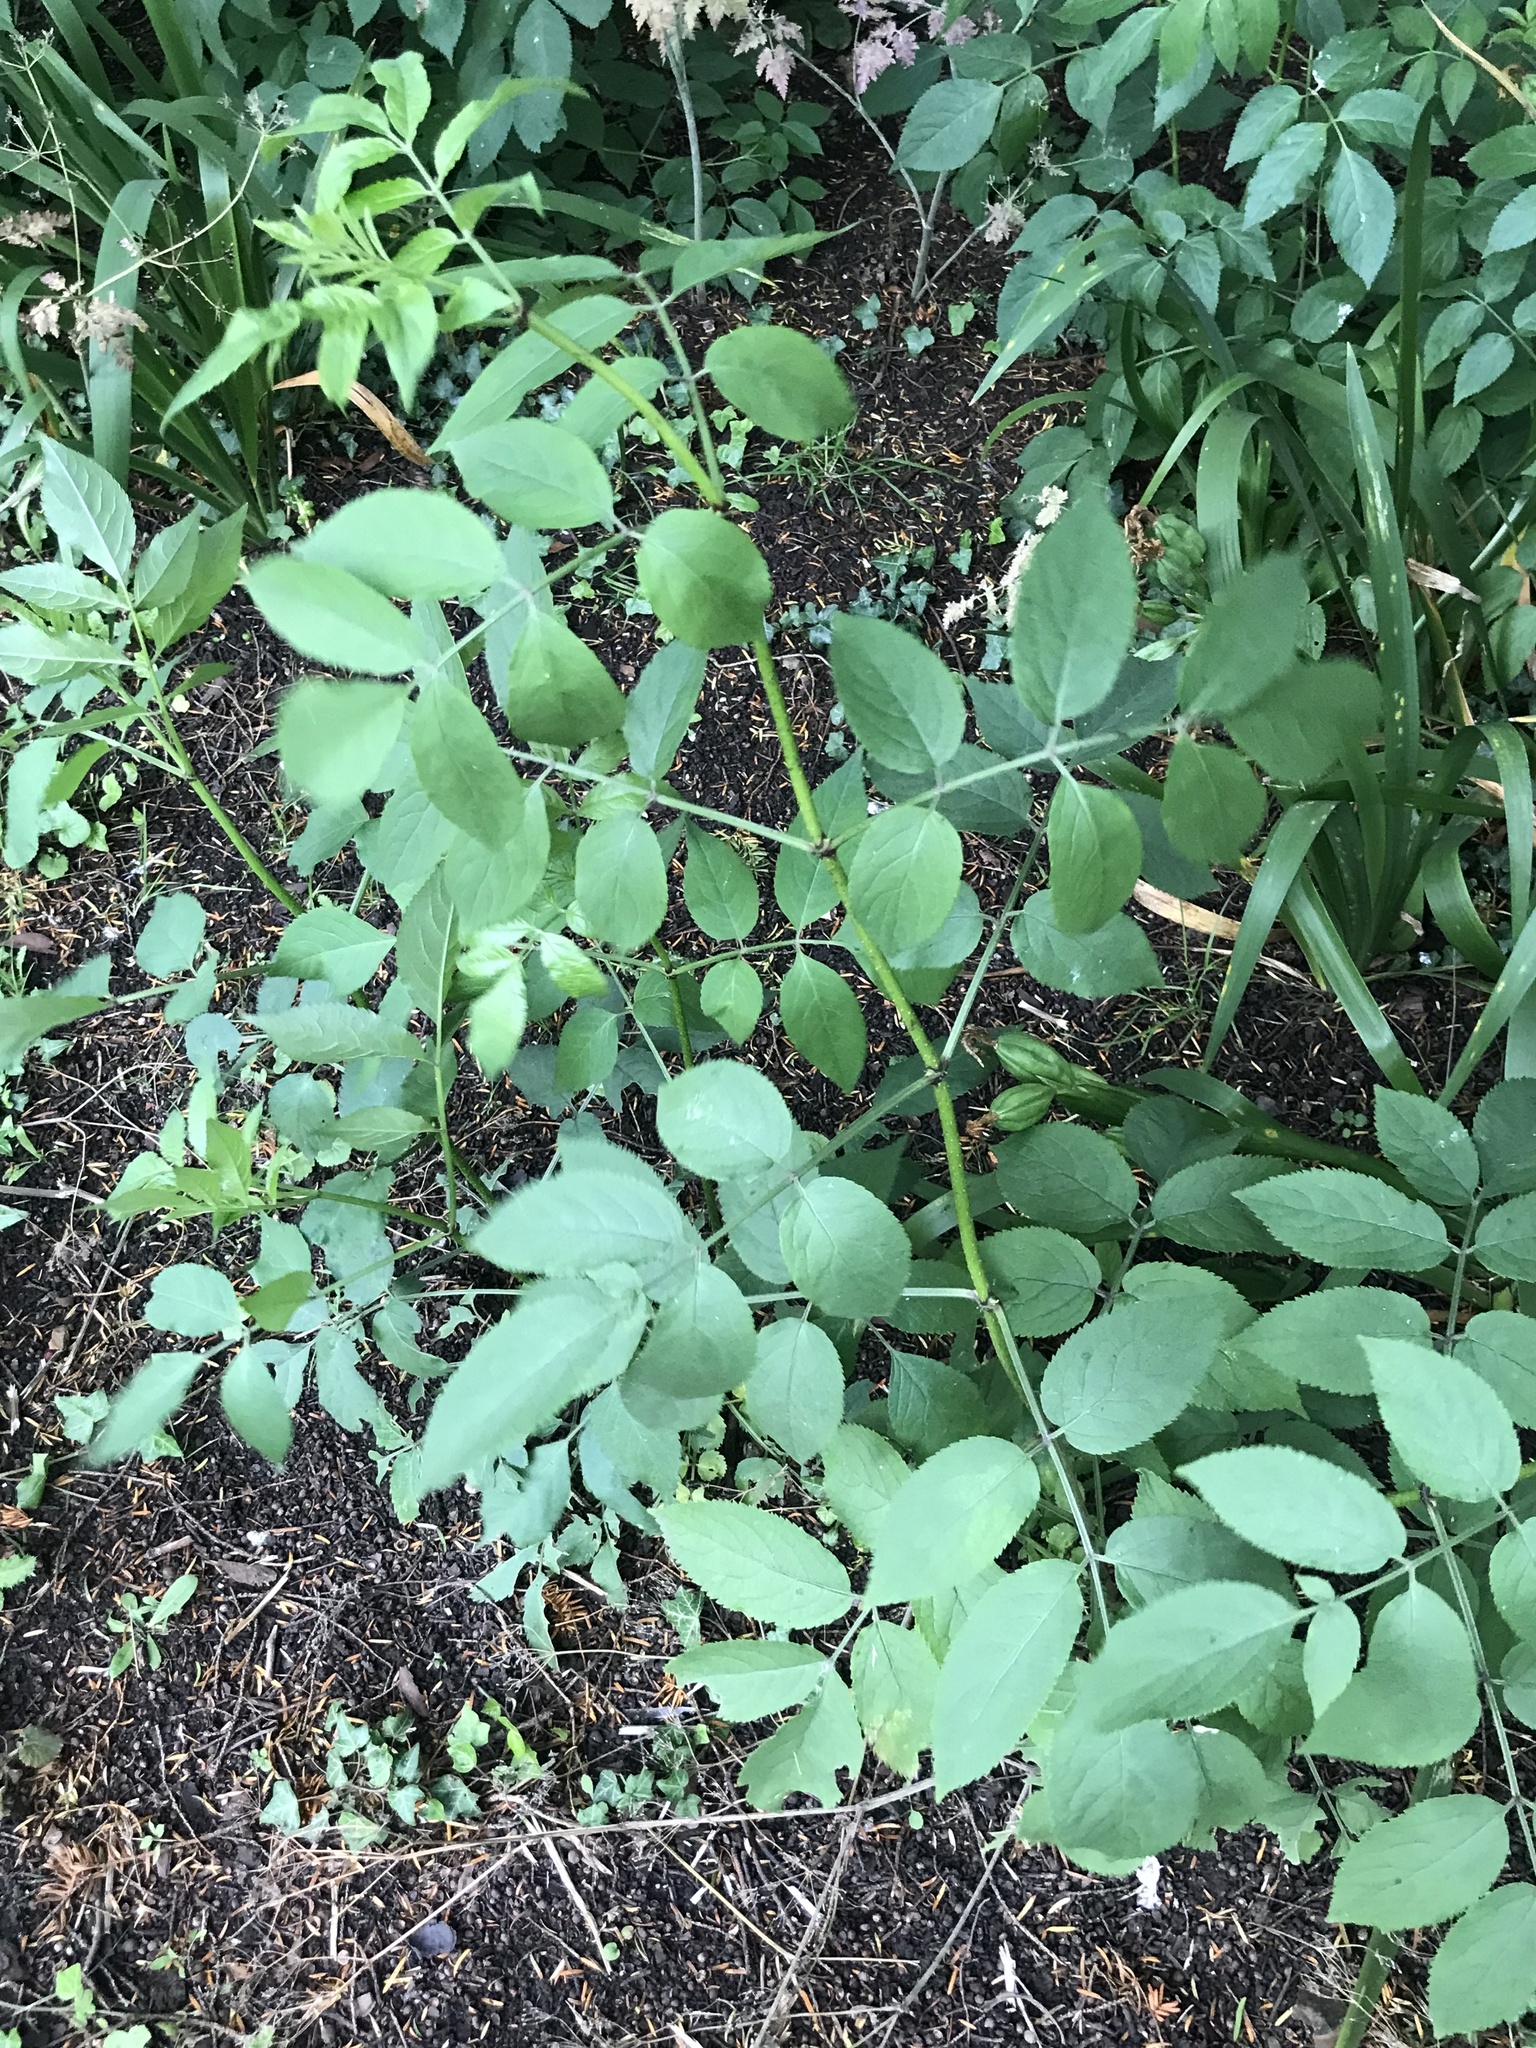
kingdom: Plantae
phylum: Tracheophyta
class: Magnoliopsida
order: Dipsacales
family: Viburnaceae
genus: Sambucus
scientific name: Sambucus nigra
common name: Elder
